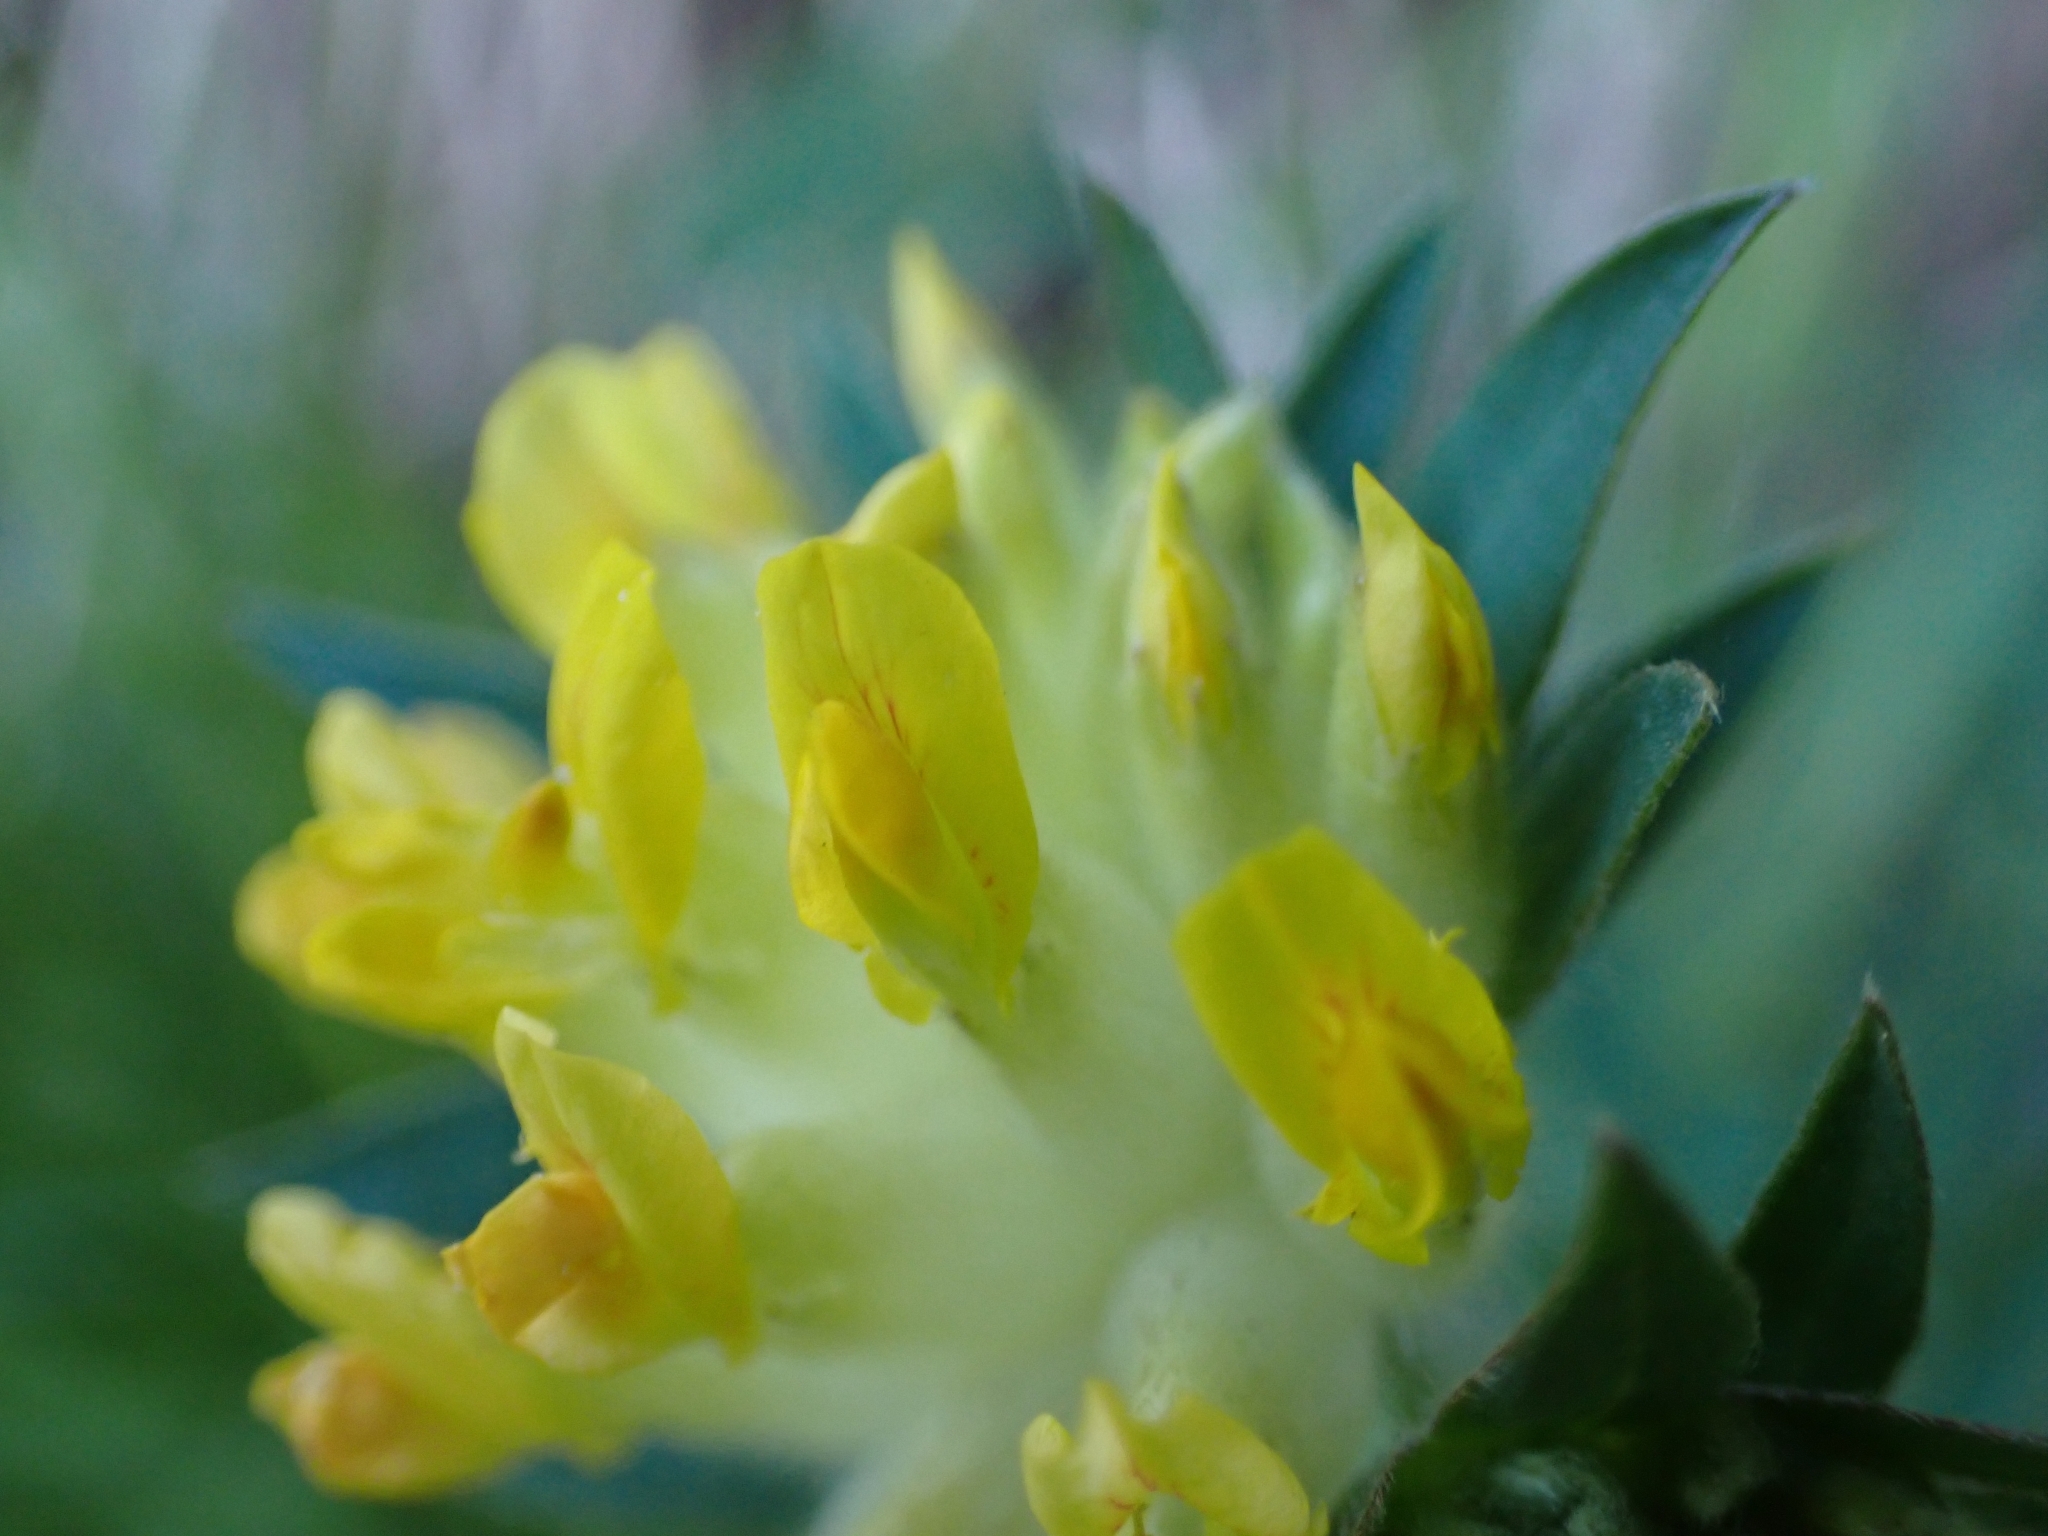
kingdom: Plantae
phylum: Tracheophyta
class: Magnoliopsida
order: Fabales
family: Fabaceae
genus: Anthyllis
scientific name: Anthyllis vulneraria
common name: Kidney vetch
